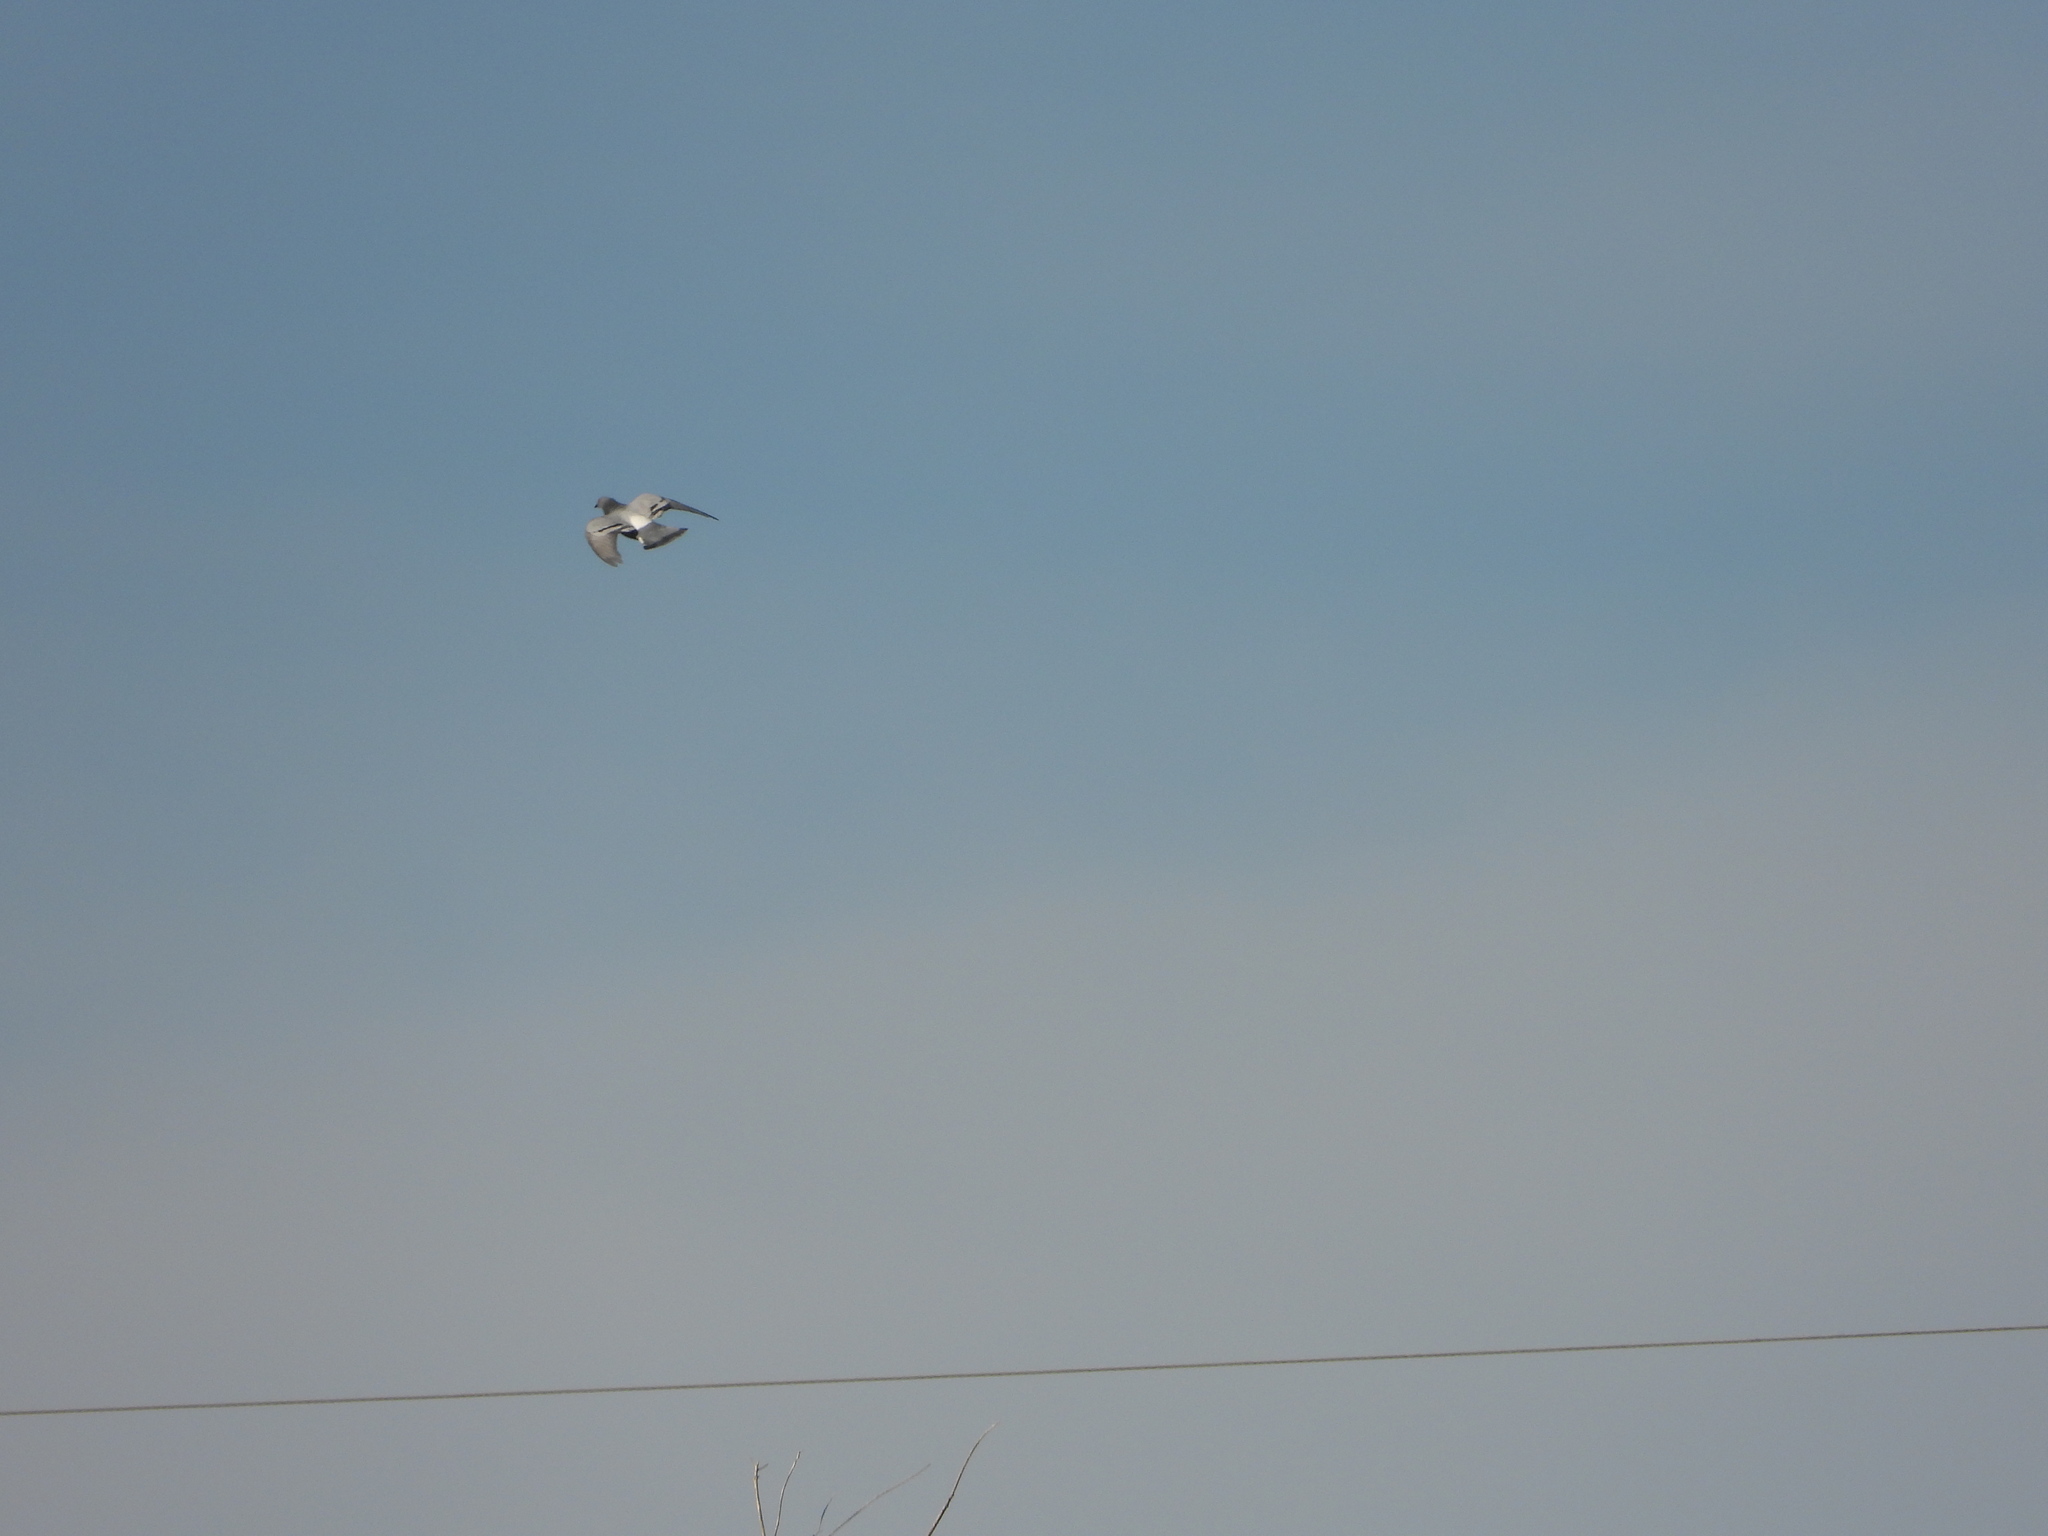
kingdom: Animalia
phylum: Chordata
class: Aves
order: Columbiformes
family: Columbidae
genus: Columba
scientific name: Columba livia
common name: Rock pigeon
